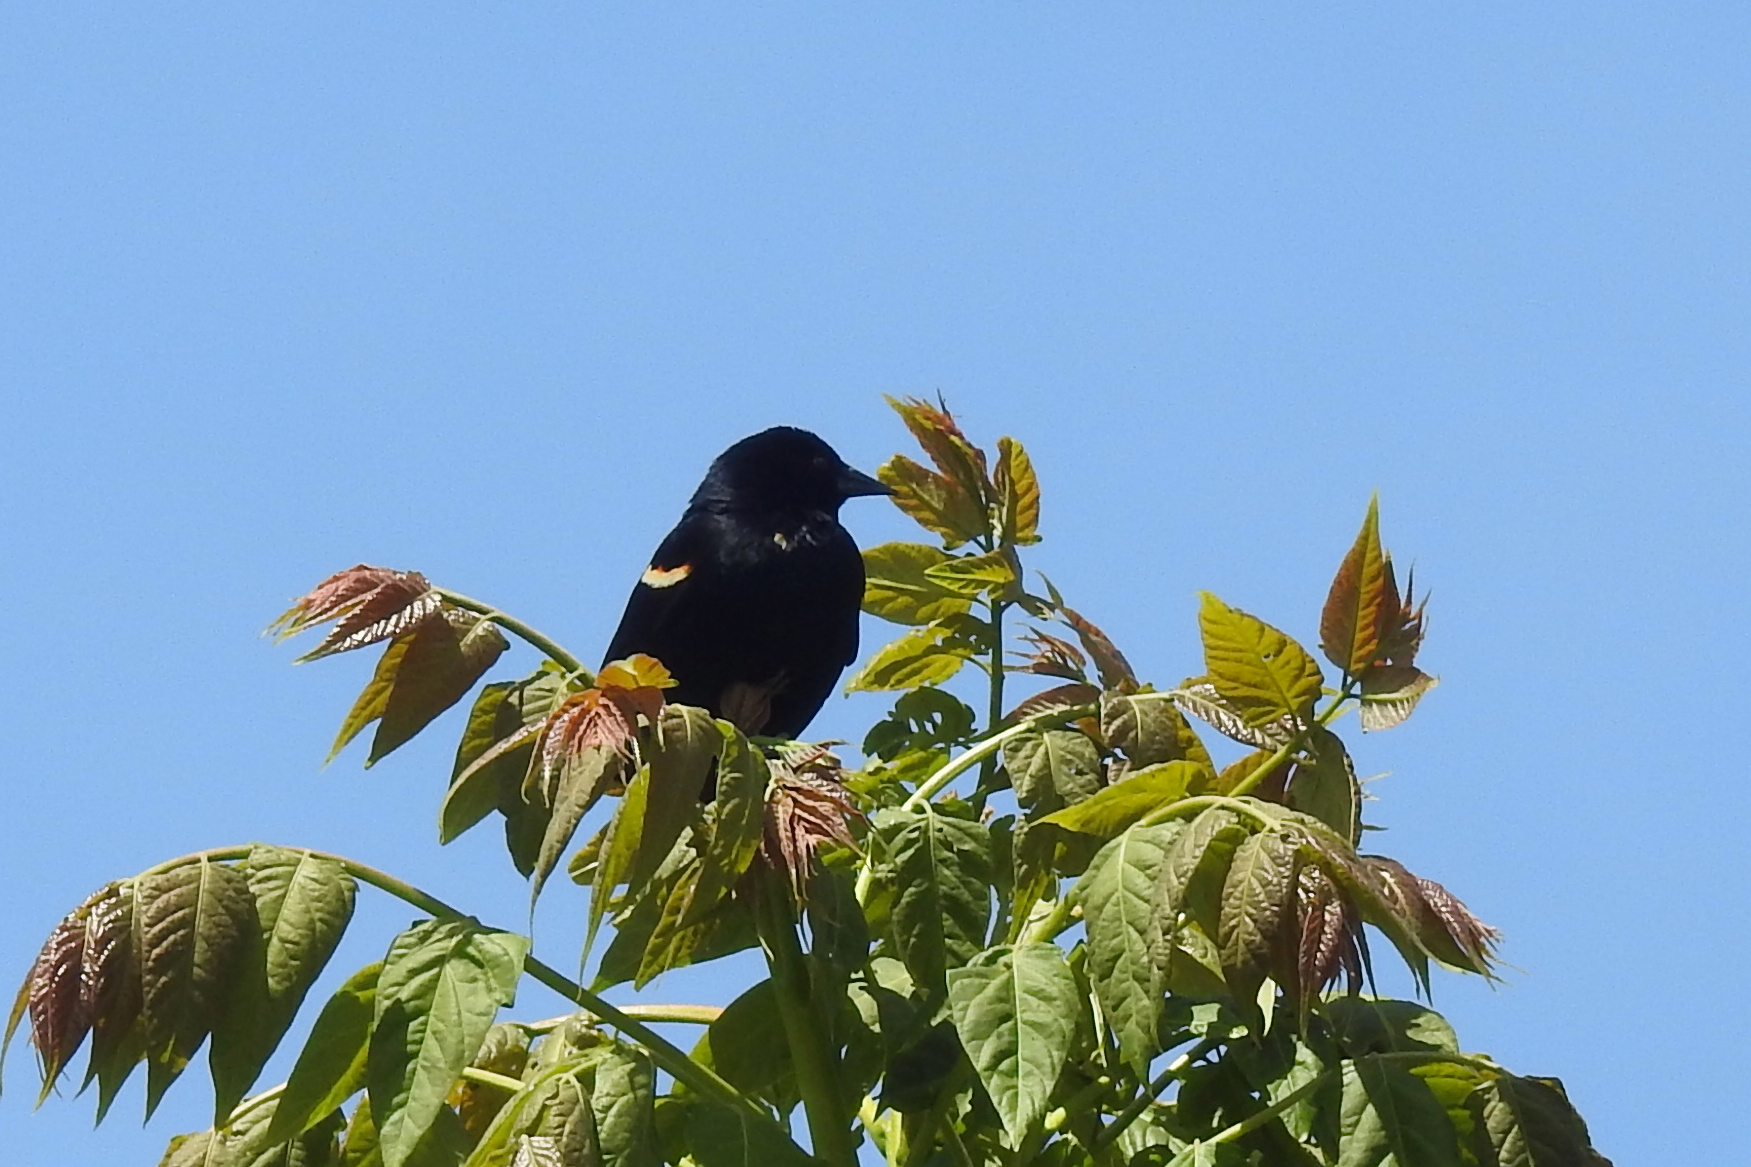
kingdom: Animalia
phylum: Chordata
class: Aves
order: Passeriformes
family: Icteridae
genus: Agelaius
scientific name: Agelaius phoeniceus
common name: Red-winged blackbird
